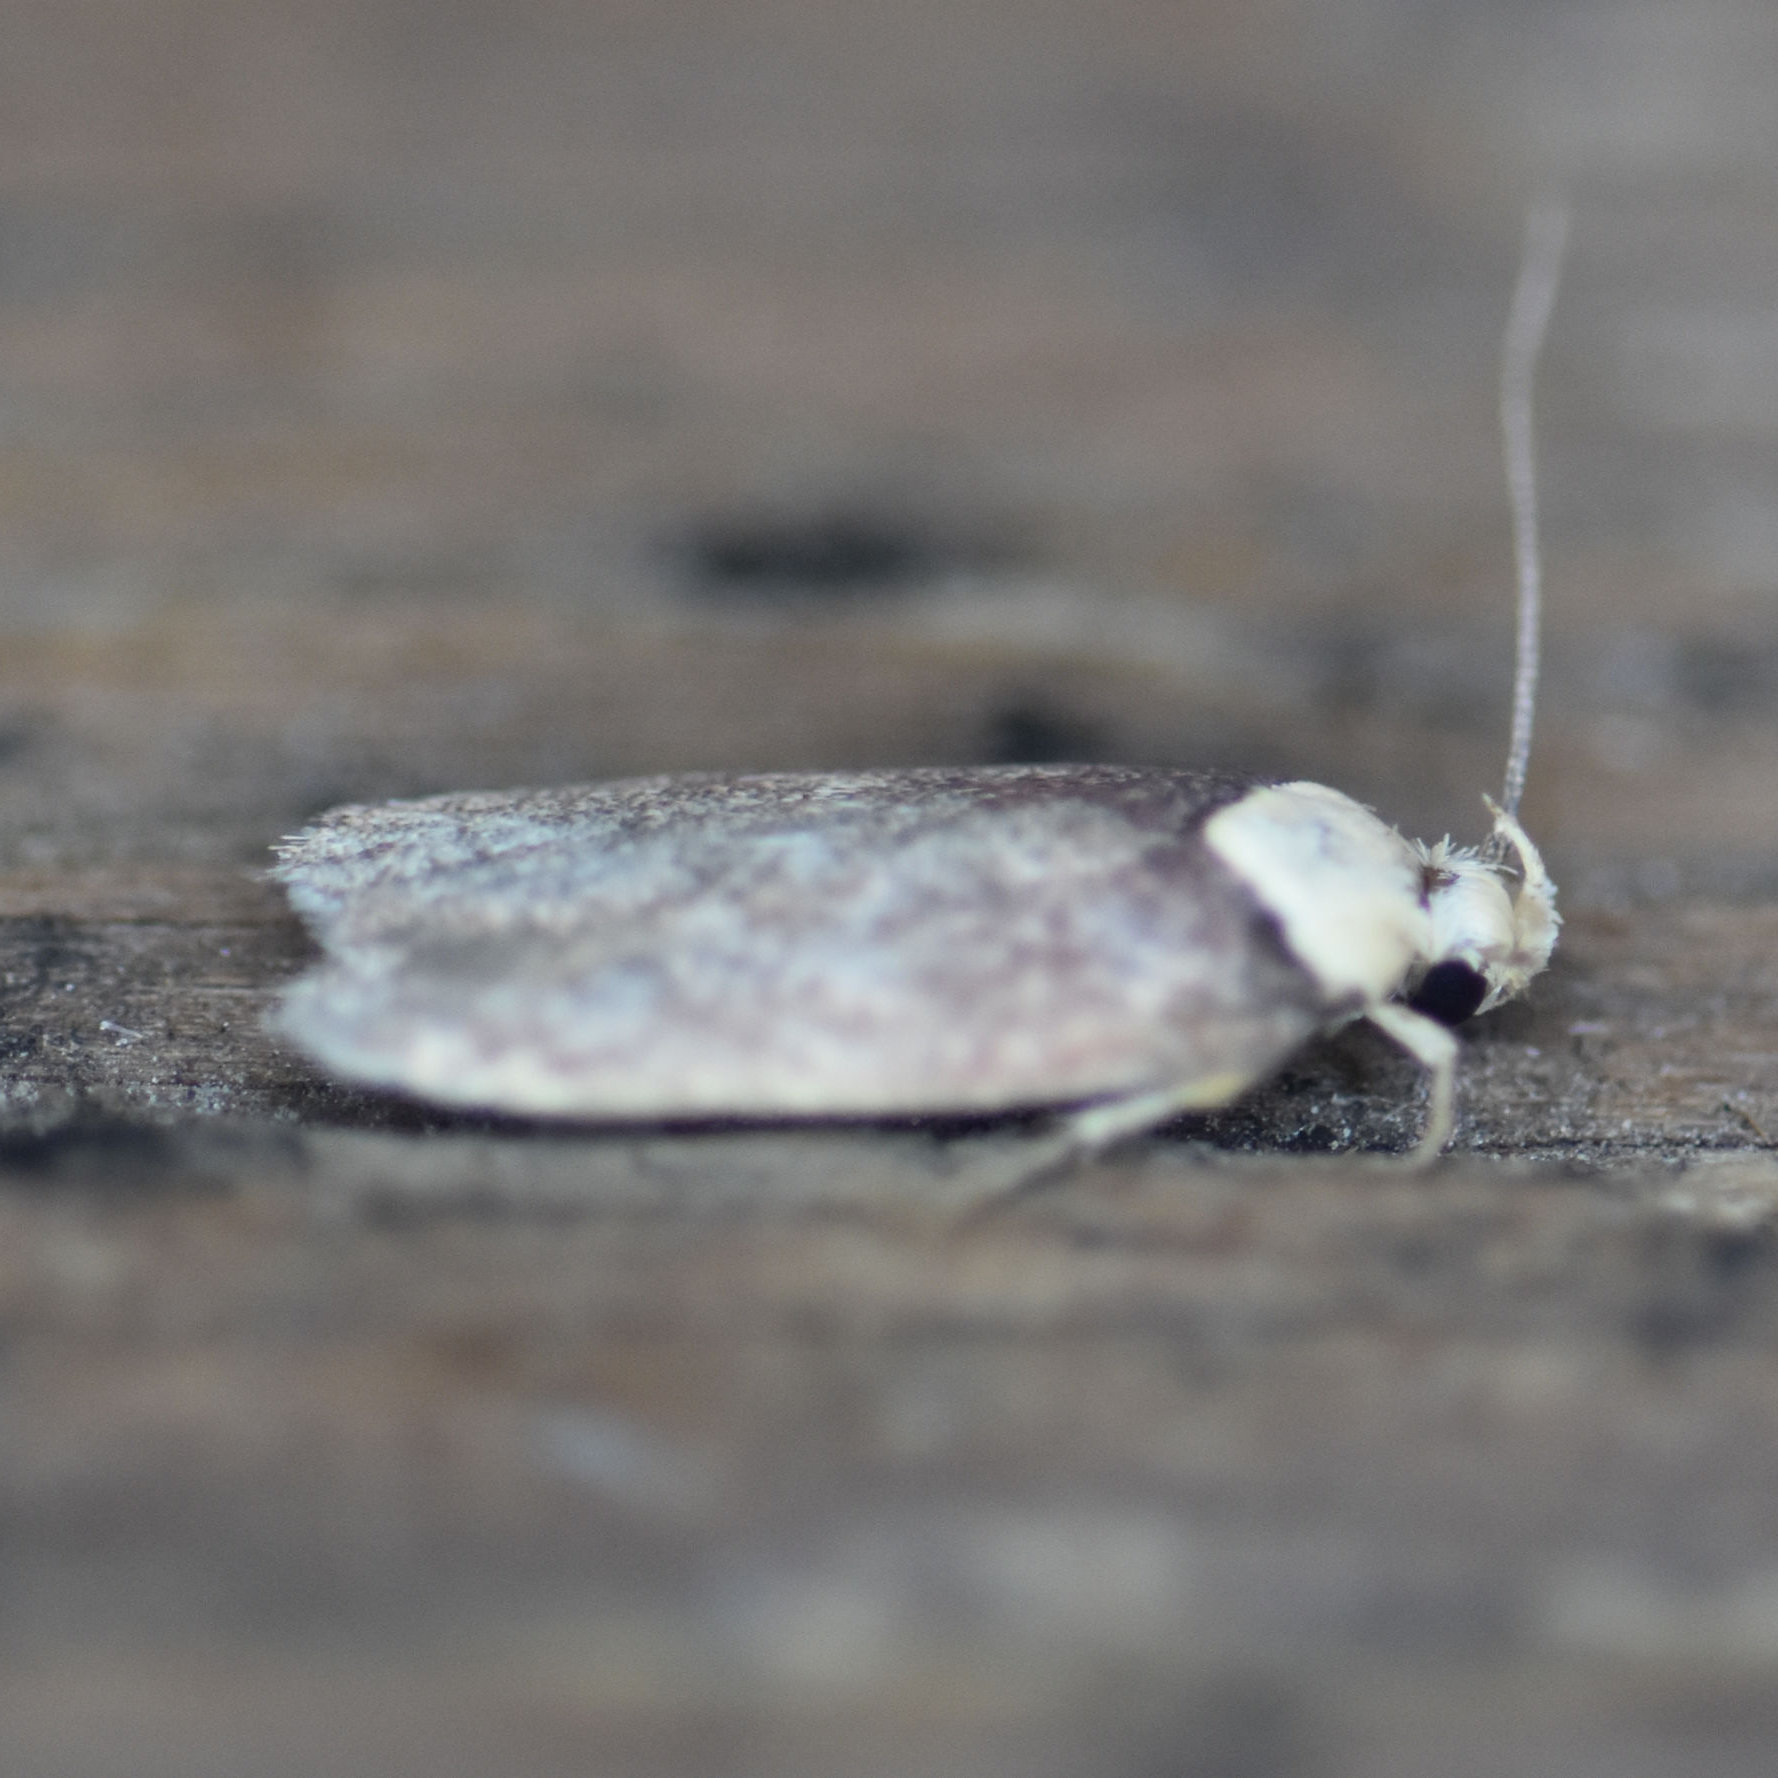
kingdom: Animalia
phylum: Arthropoda
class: Insecta
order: Lepidoptera
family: Depressariidae
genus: Depressaria
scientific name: Depressaria depressana
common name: Lost flat-body
